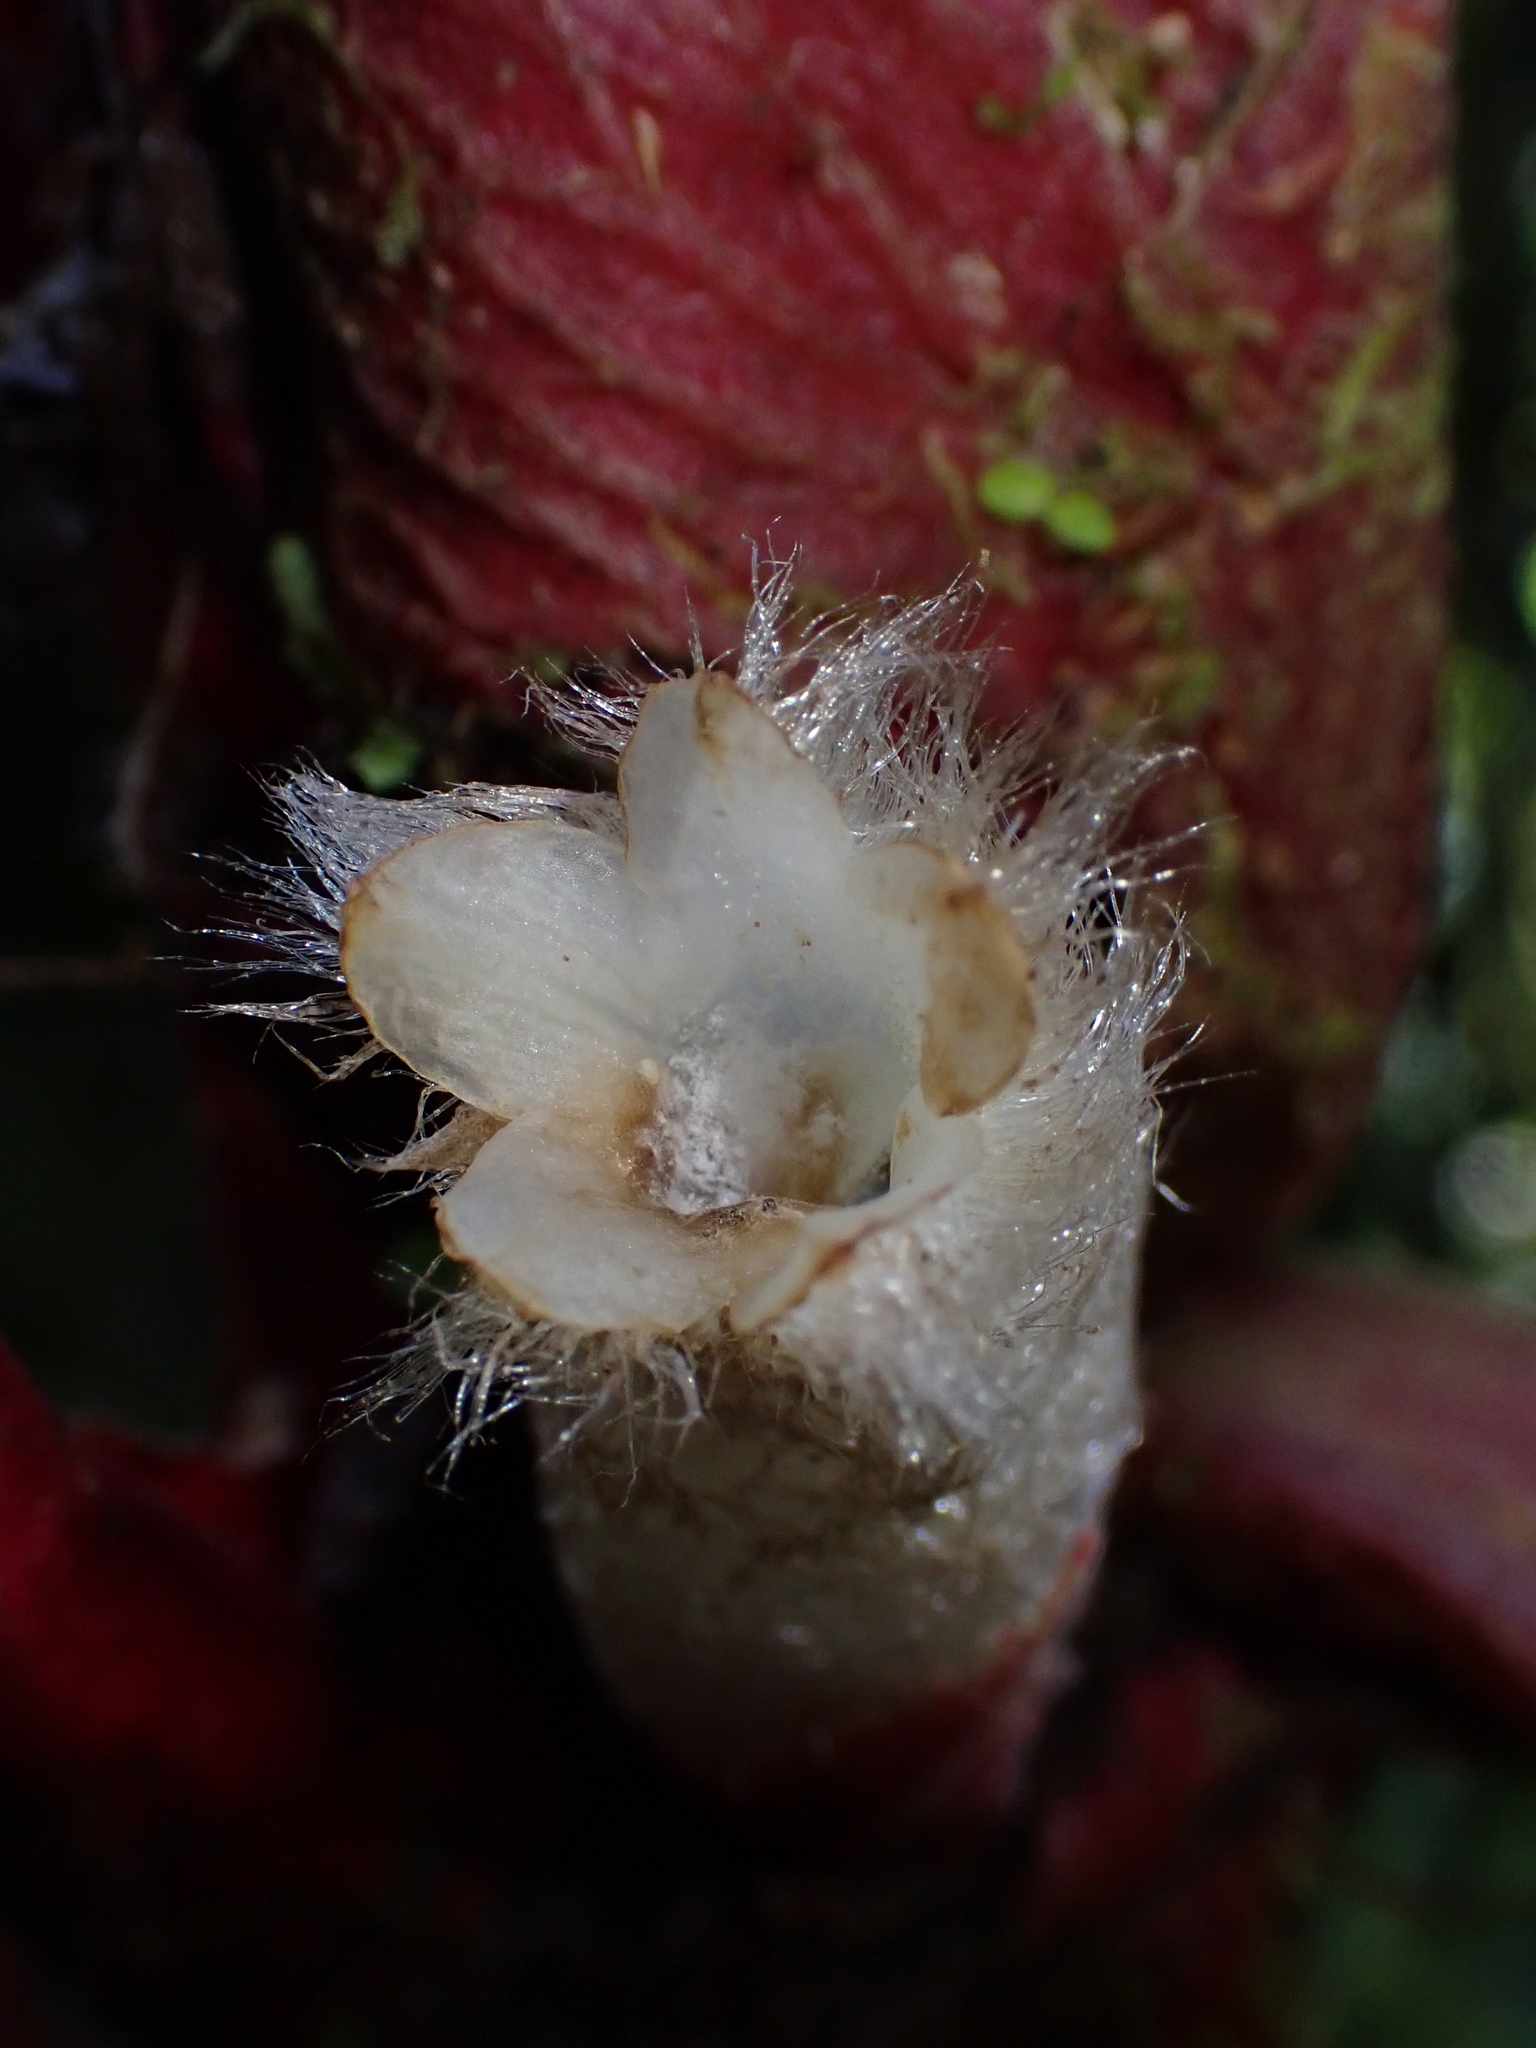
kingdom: Plantae
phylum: Tracheophyta
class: Magnoliopsida
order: Lamiales
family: Gesneriaceae
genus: Columnea
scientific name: Columnea mastersonii
